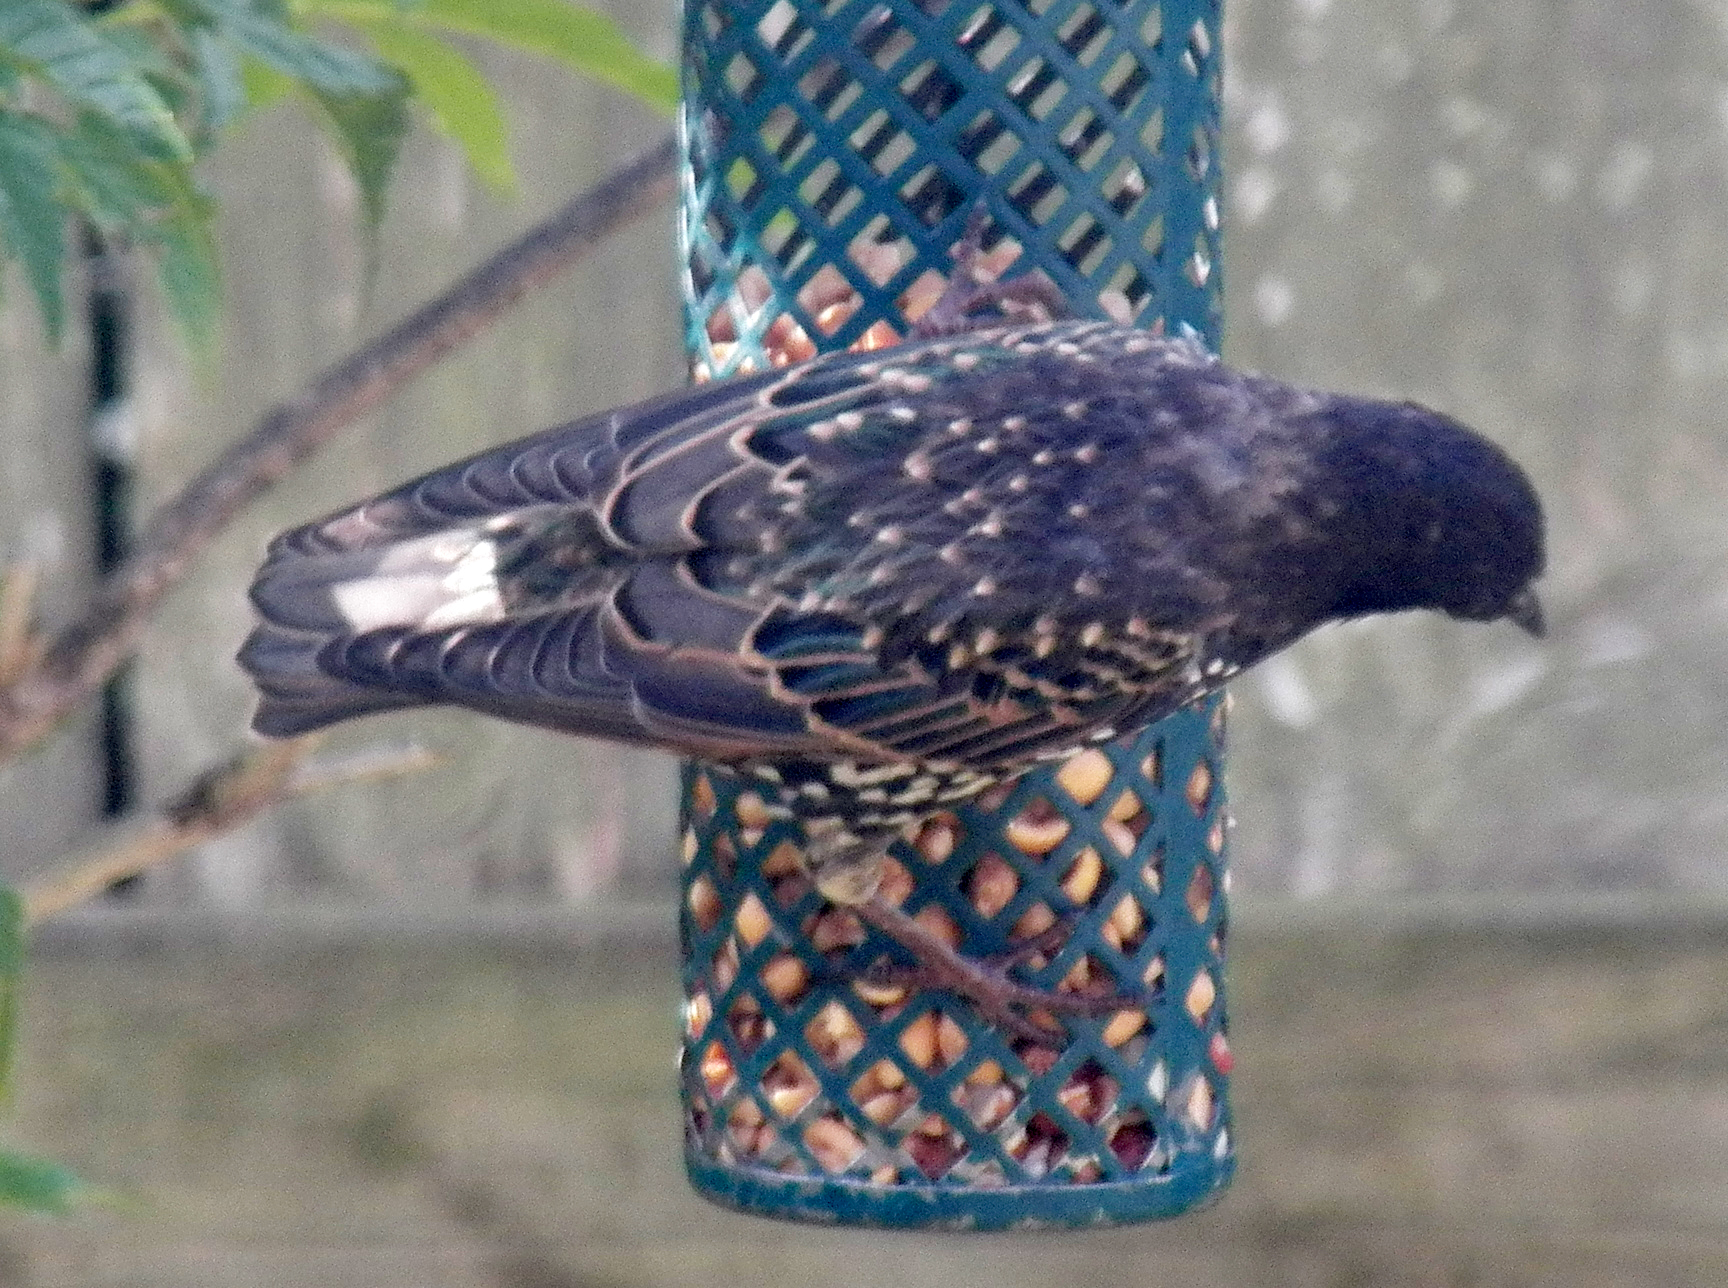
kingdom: Animalia
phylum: Chordata
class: Aves
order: Passeriformes
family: Sturnidae
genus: Sturnus
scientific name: Sturnus vulgaris
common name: Common starling
